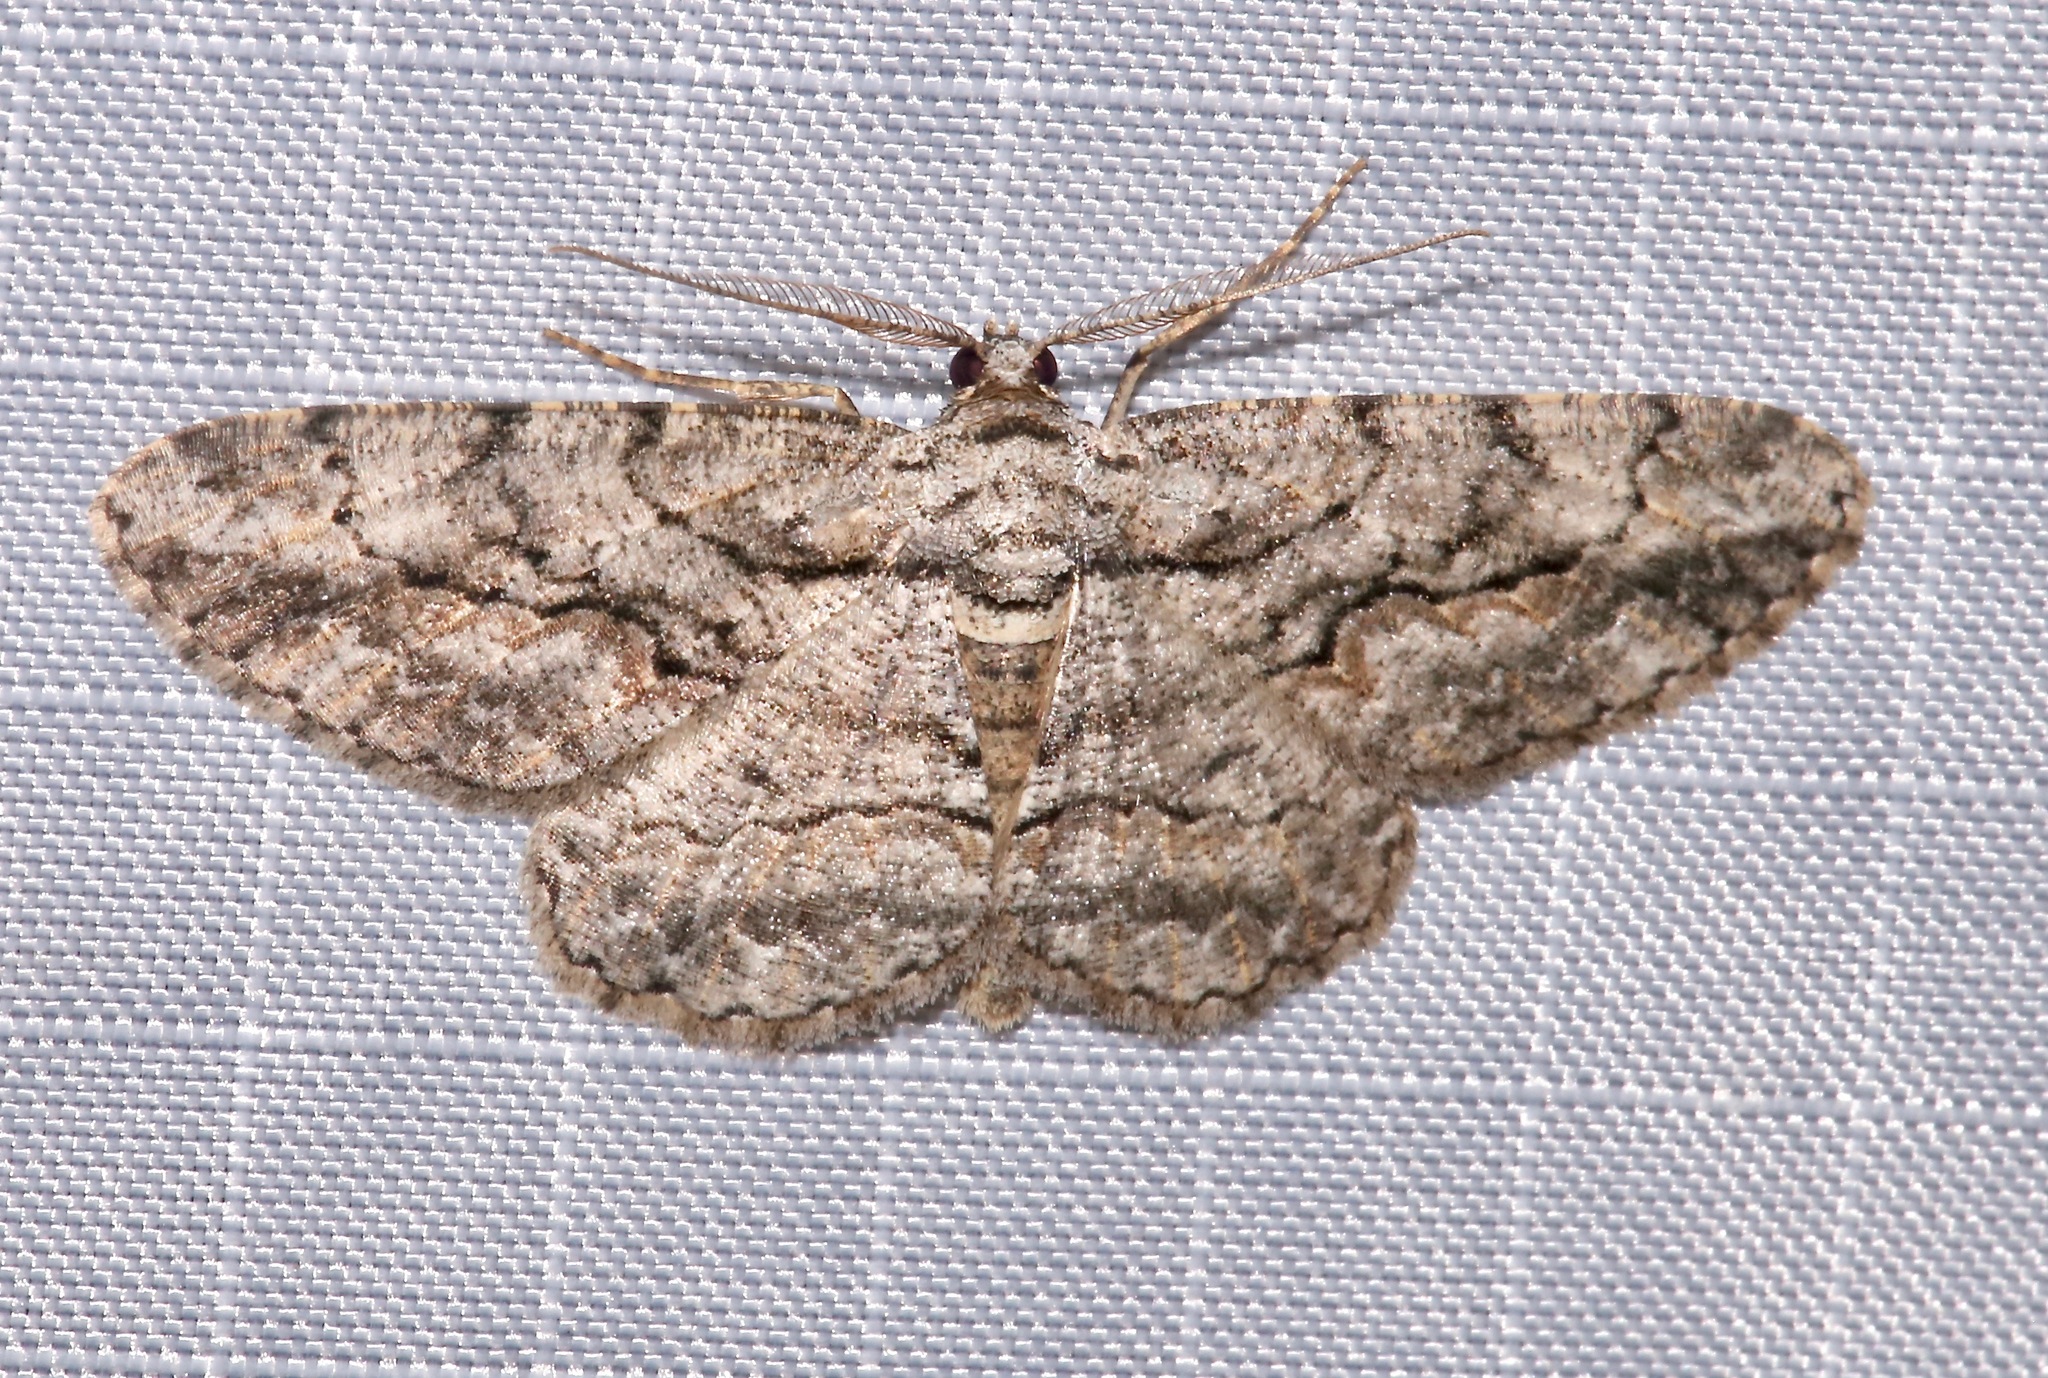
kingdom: Animalia
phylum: Arthropoda
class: Insecta
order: Lepidoptera
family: Geometridae
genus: Anavitrinella
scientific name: Anavitrinella pampinaria
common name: Common gray
